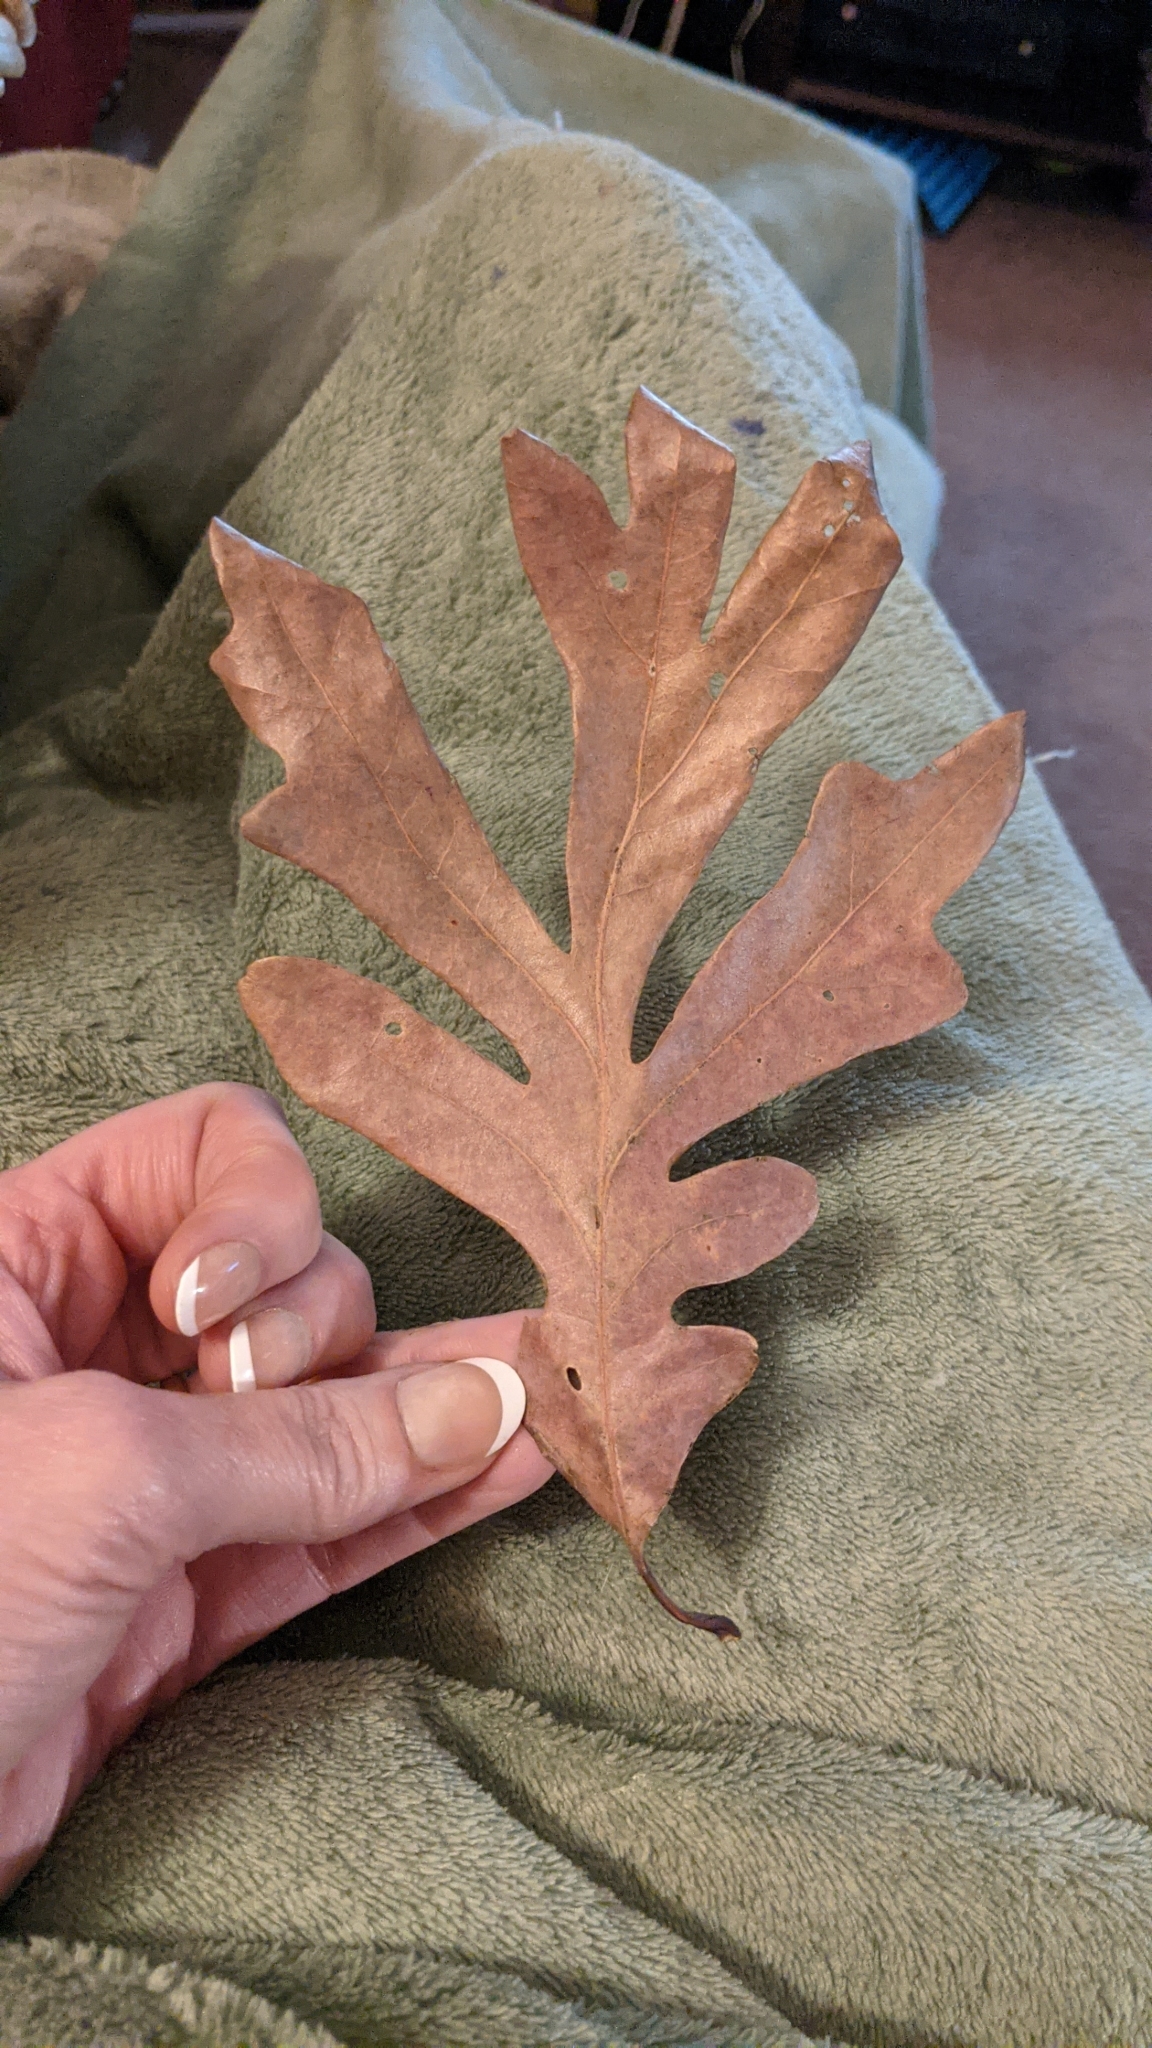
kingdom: Plantae
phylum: Tracheophyta
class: Magnoliopsida
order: Fagales
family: Fagaceae
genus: Quercus
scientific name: Quercus alba
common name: White oak
